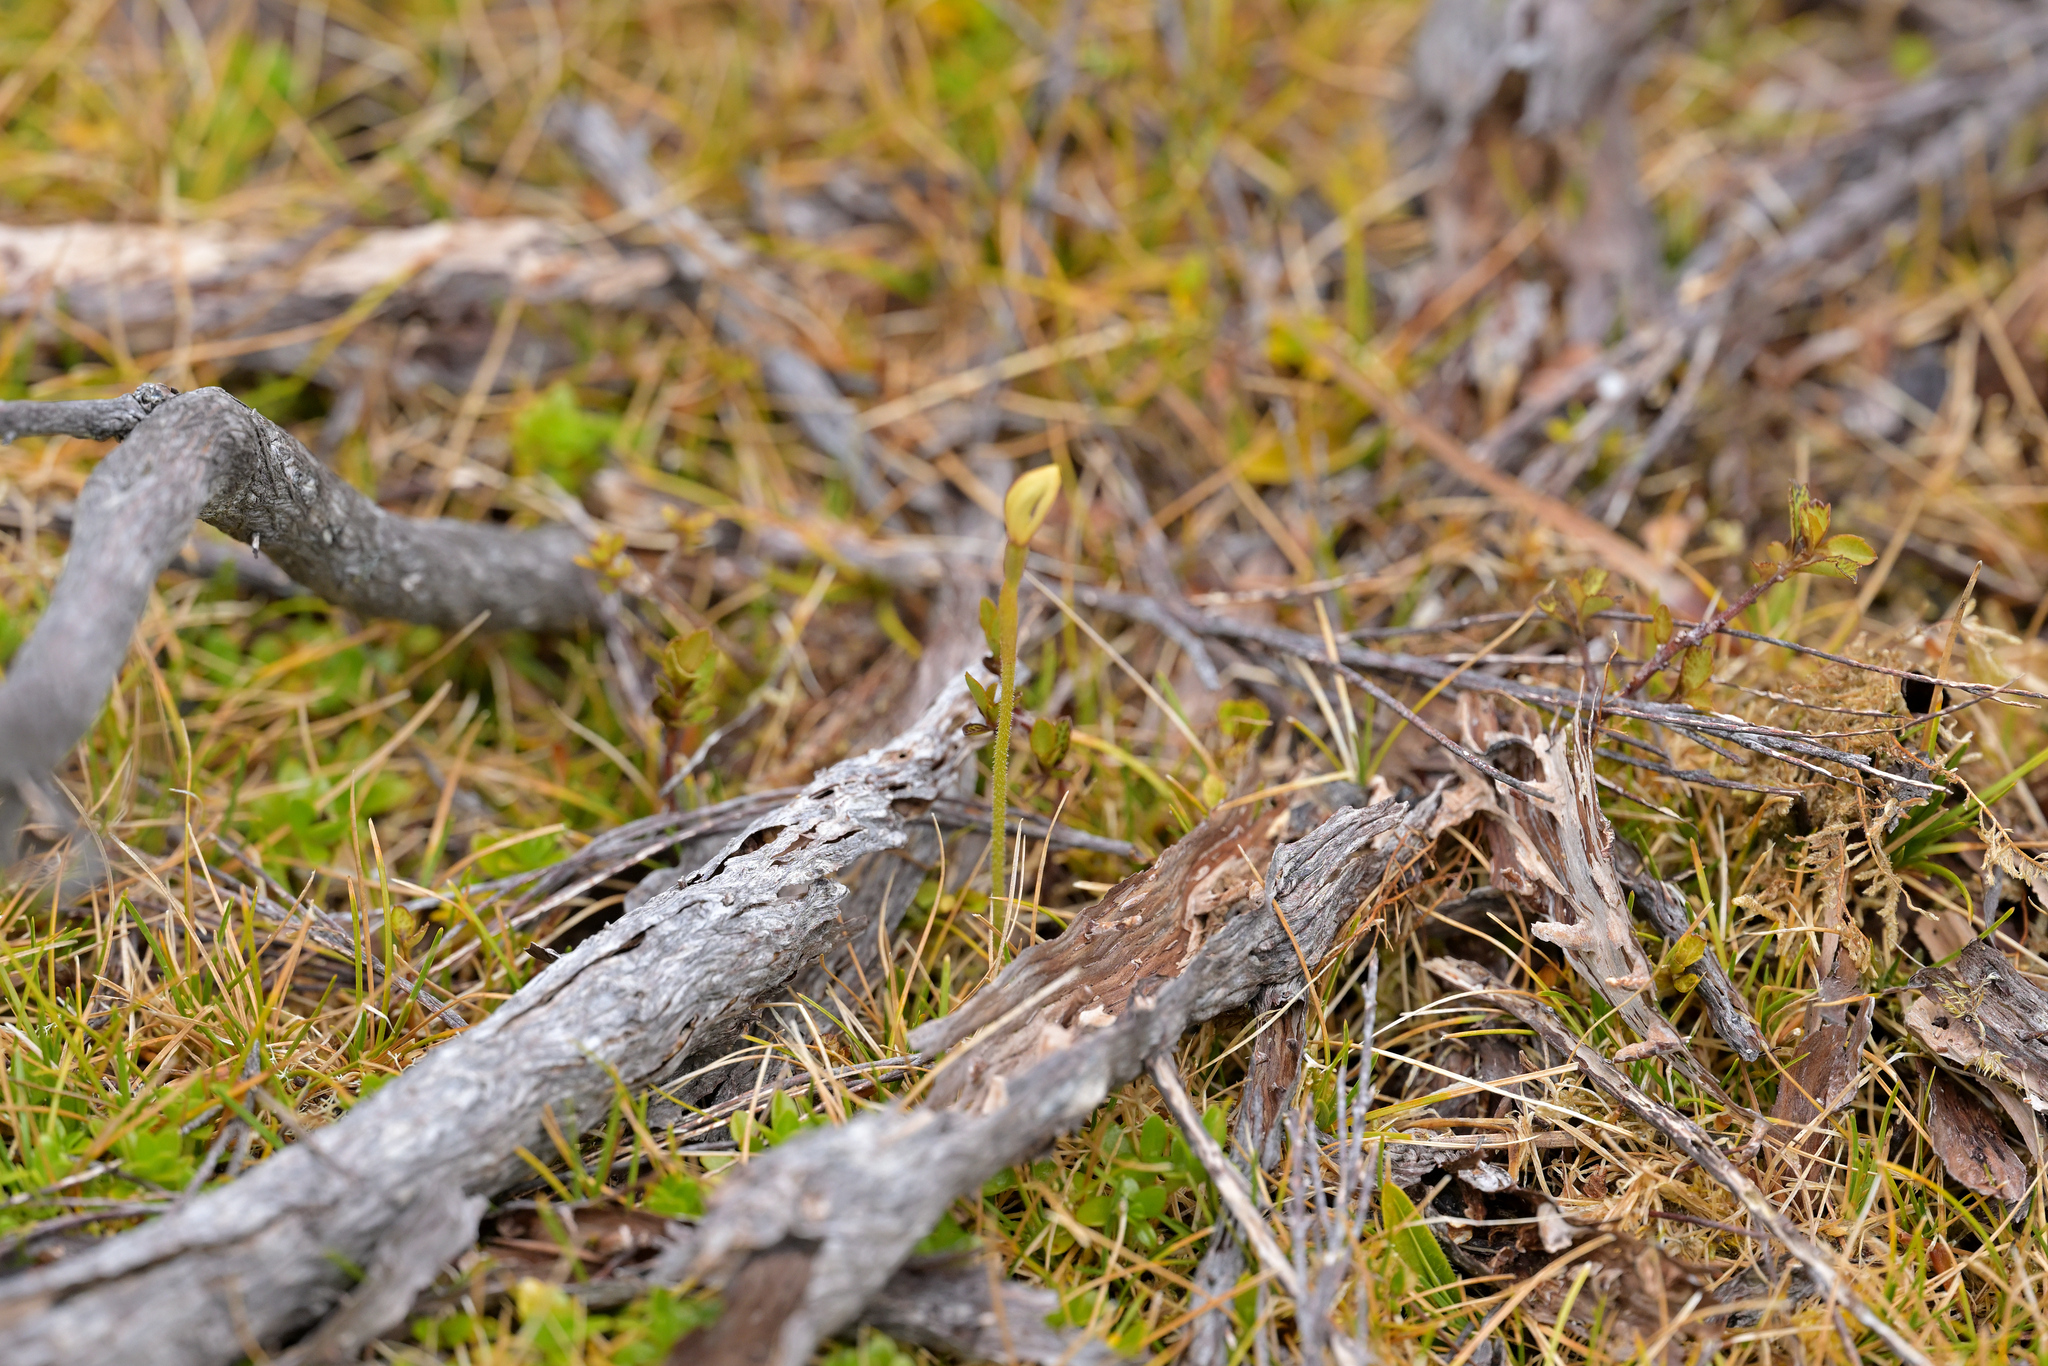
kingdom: Plantae
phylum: Tracheophyta
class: Liliopsida
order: Asparagales
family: Orchidaceae
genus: Aporostylis
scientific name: Aporostylis bifolia
